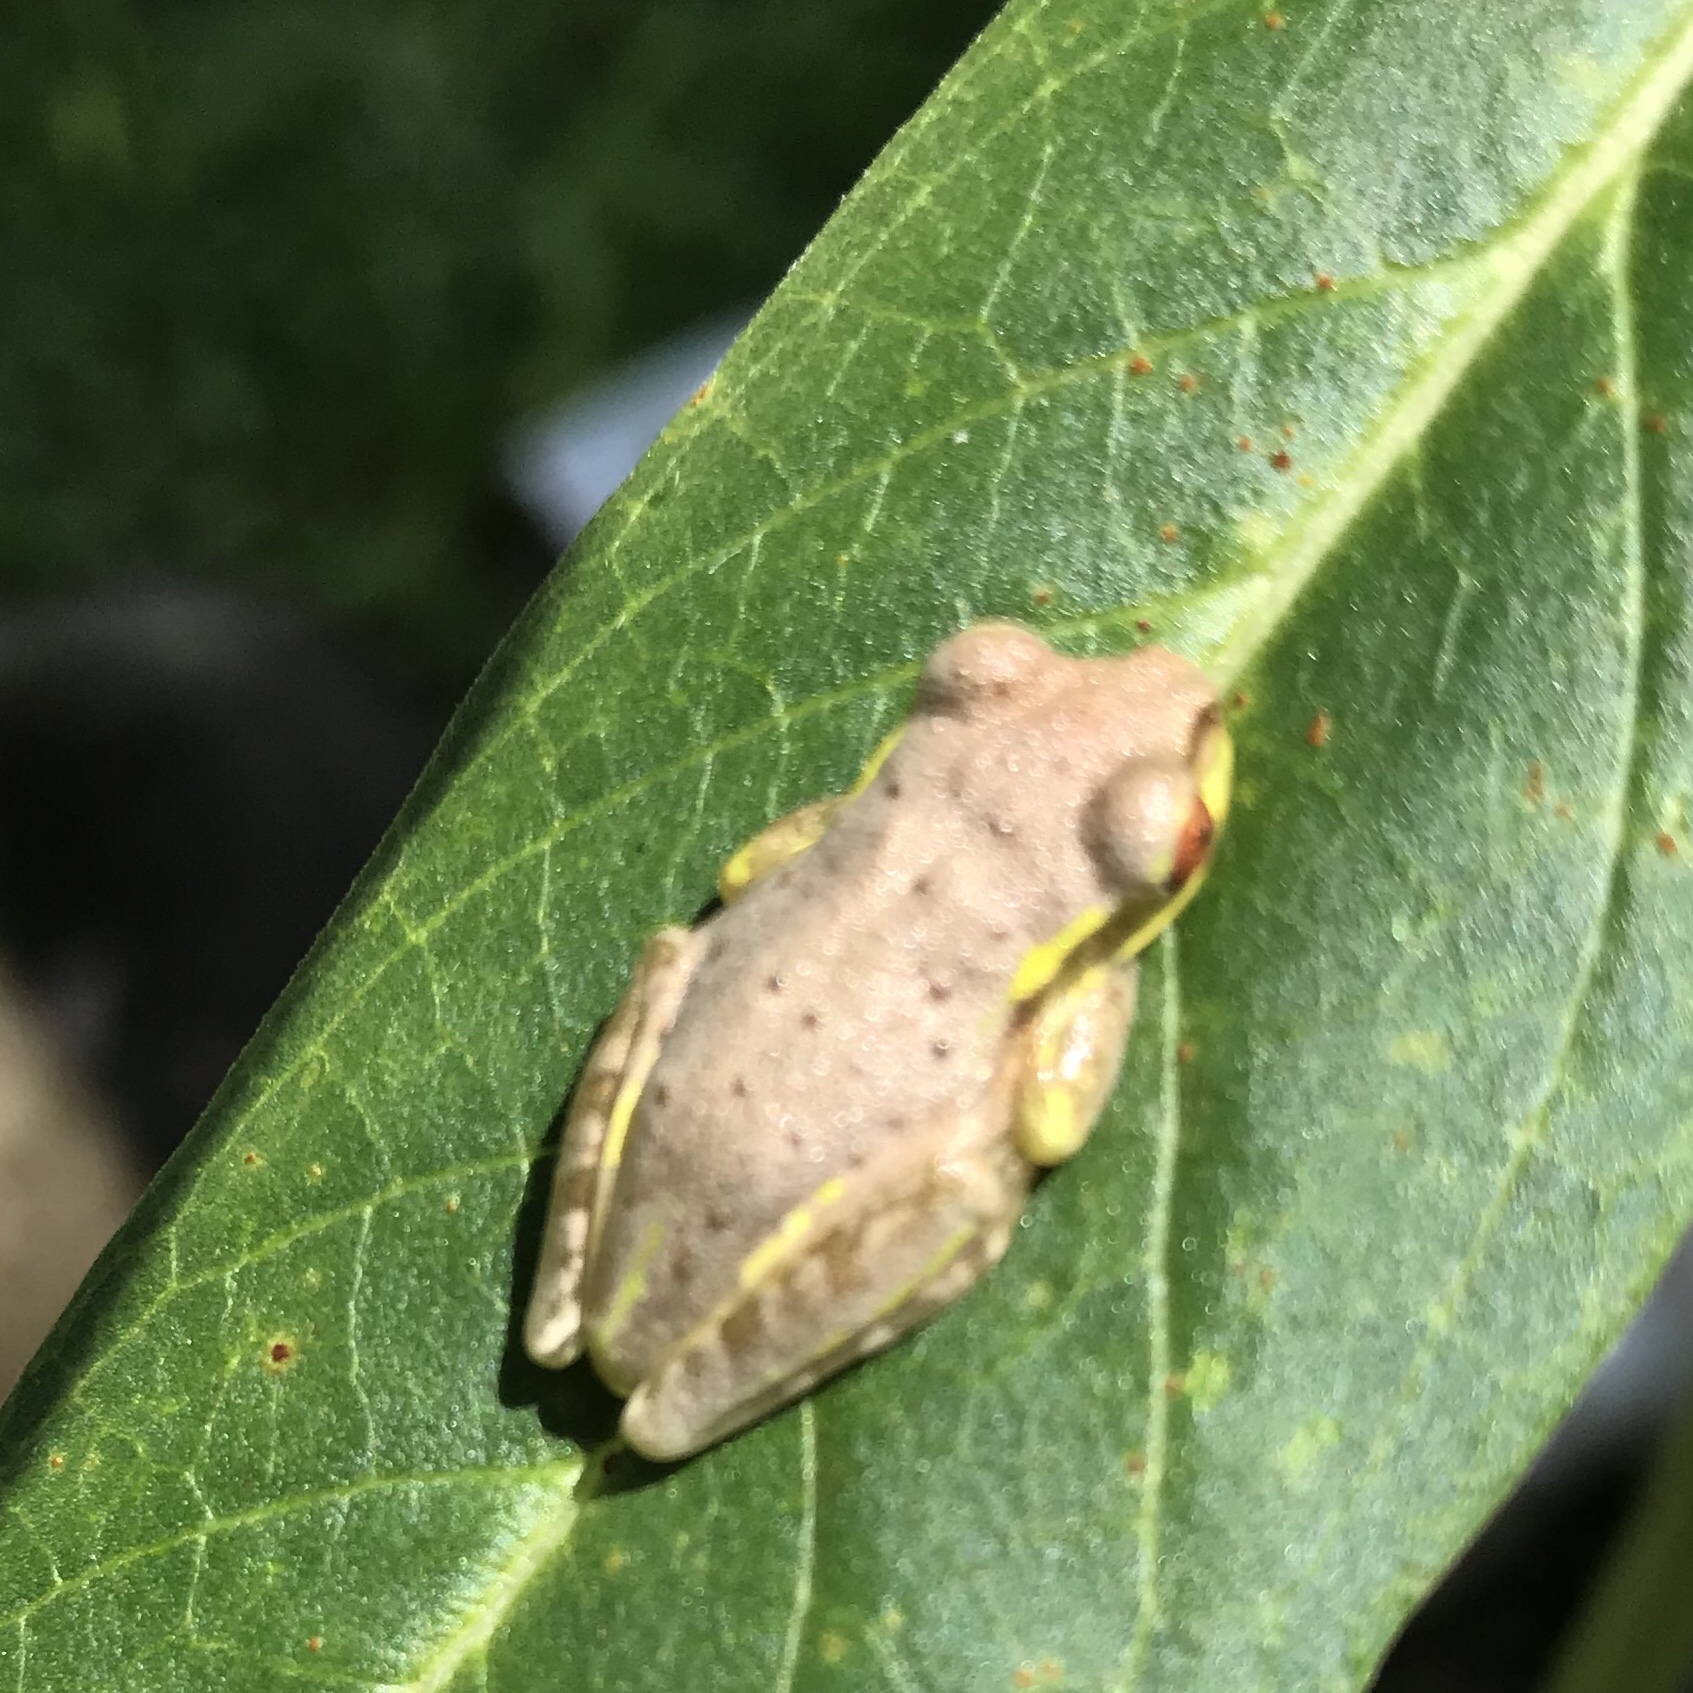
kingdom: Animalia
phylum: Chordata
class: Amphibia
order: Anura
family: Hylidae
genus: Osteopilus
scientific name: Osteopilus septentrionalis
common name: Cuban treefrog
